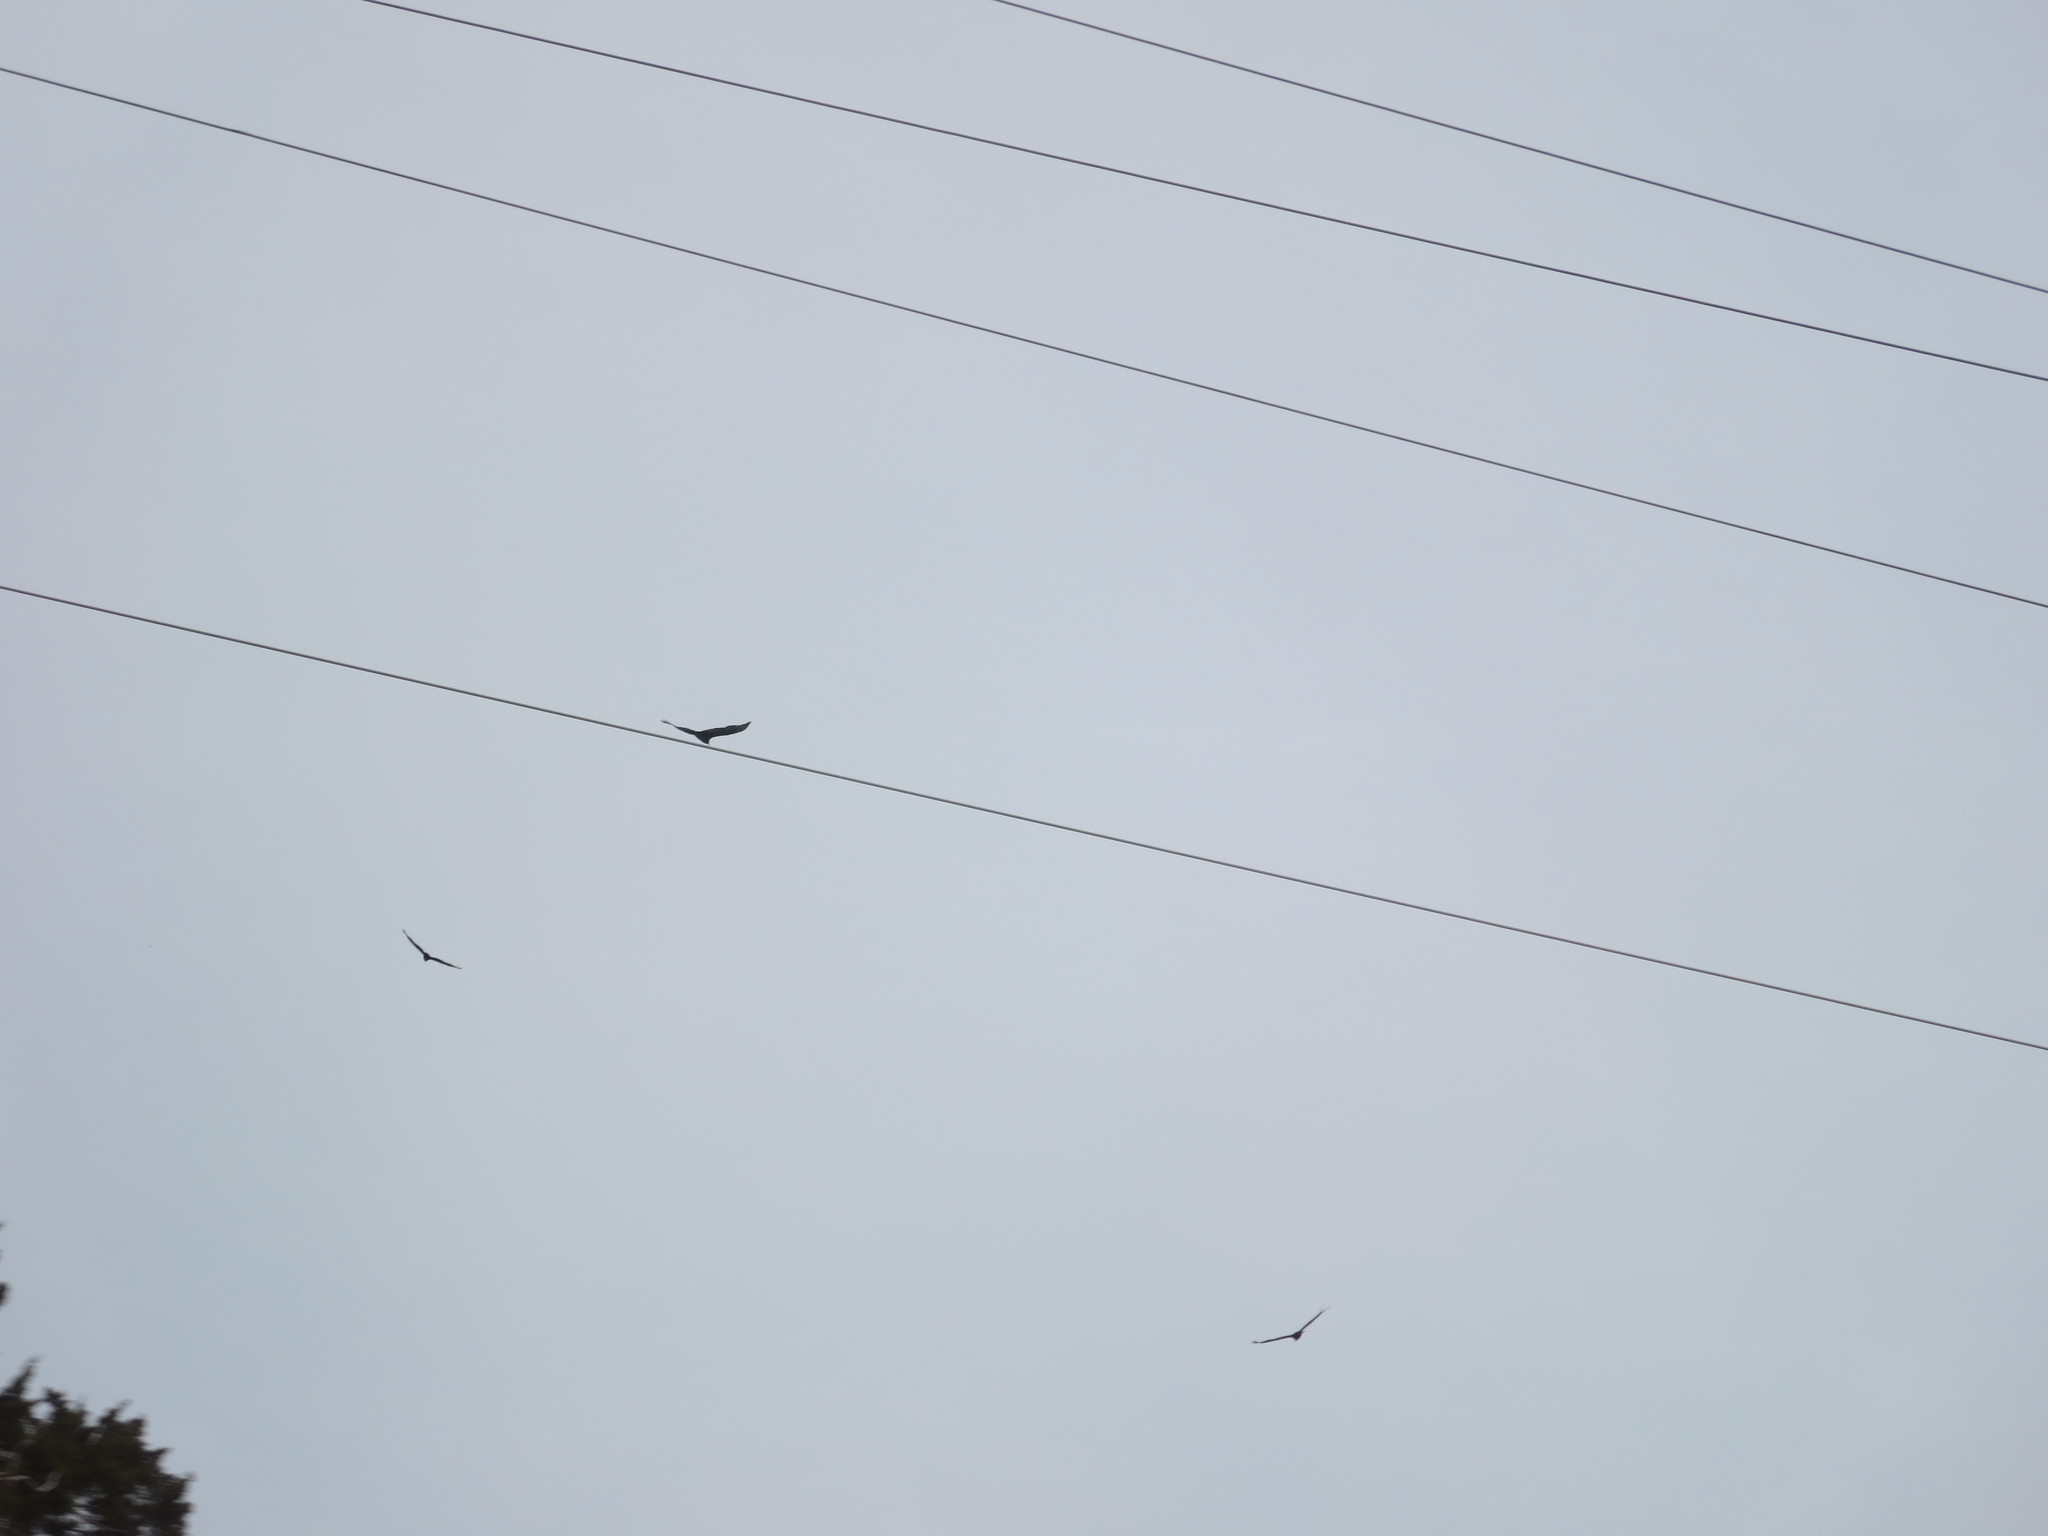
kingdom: Animalia
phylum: Chordata
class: Aves
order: Accipitriformes
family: Cathartidae
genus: Cathartes
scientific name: Cathartes aura
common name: Turkey vulture
